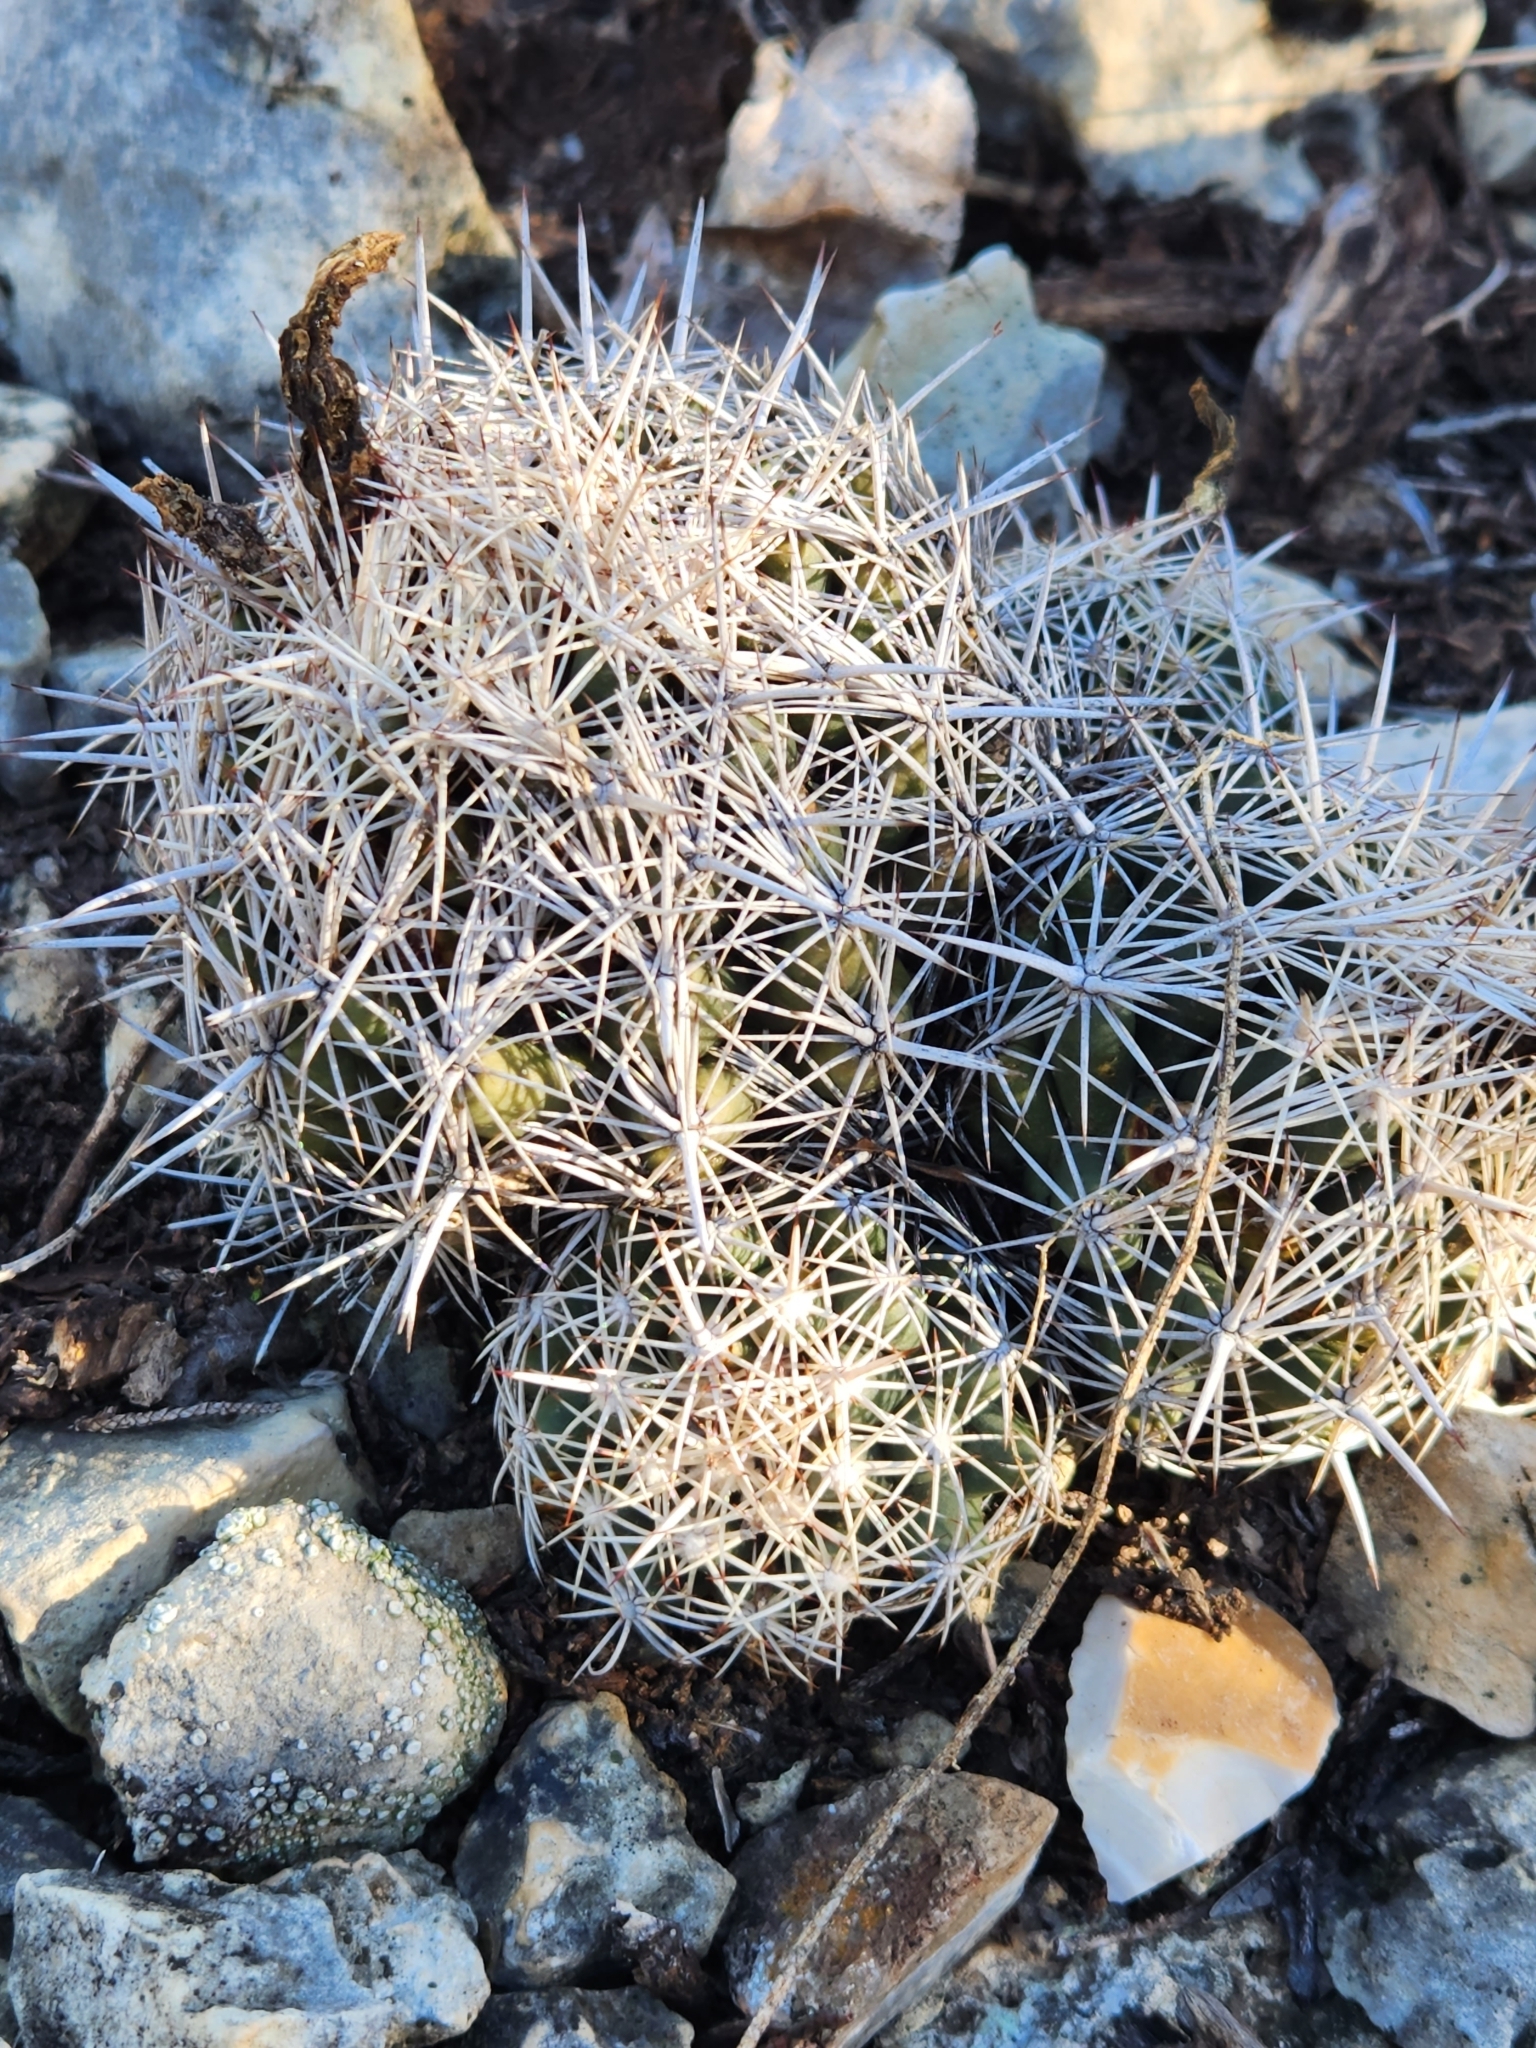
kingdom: Plantae
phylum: Tracheophyta
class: Magnoliopsida
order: Caryophyllales
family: Cactaceae
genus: Coryphantha
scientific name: Coryphantha sulcata
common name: Finger cactus
